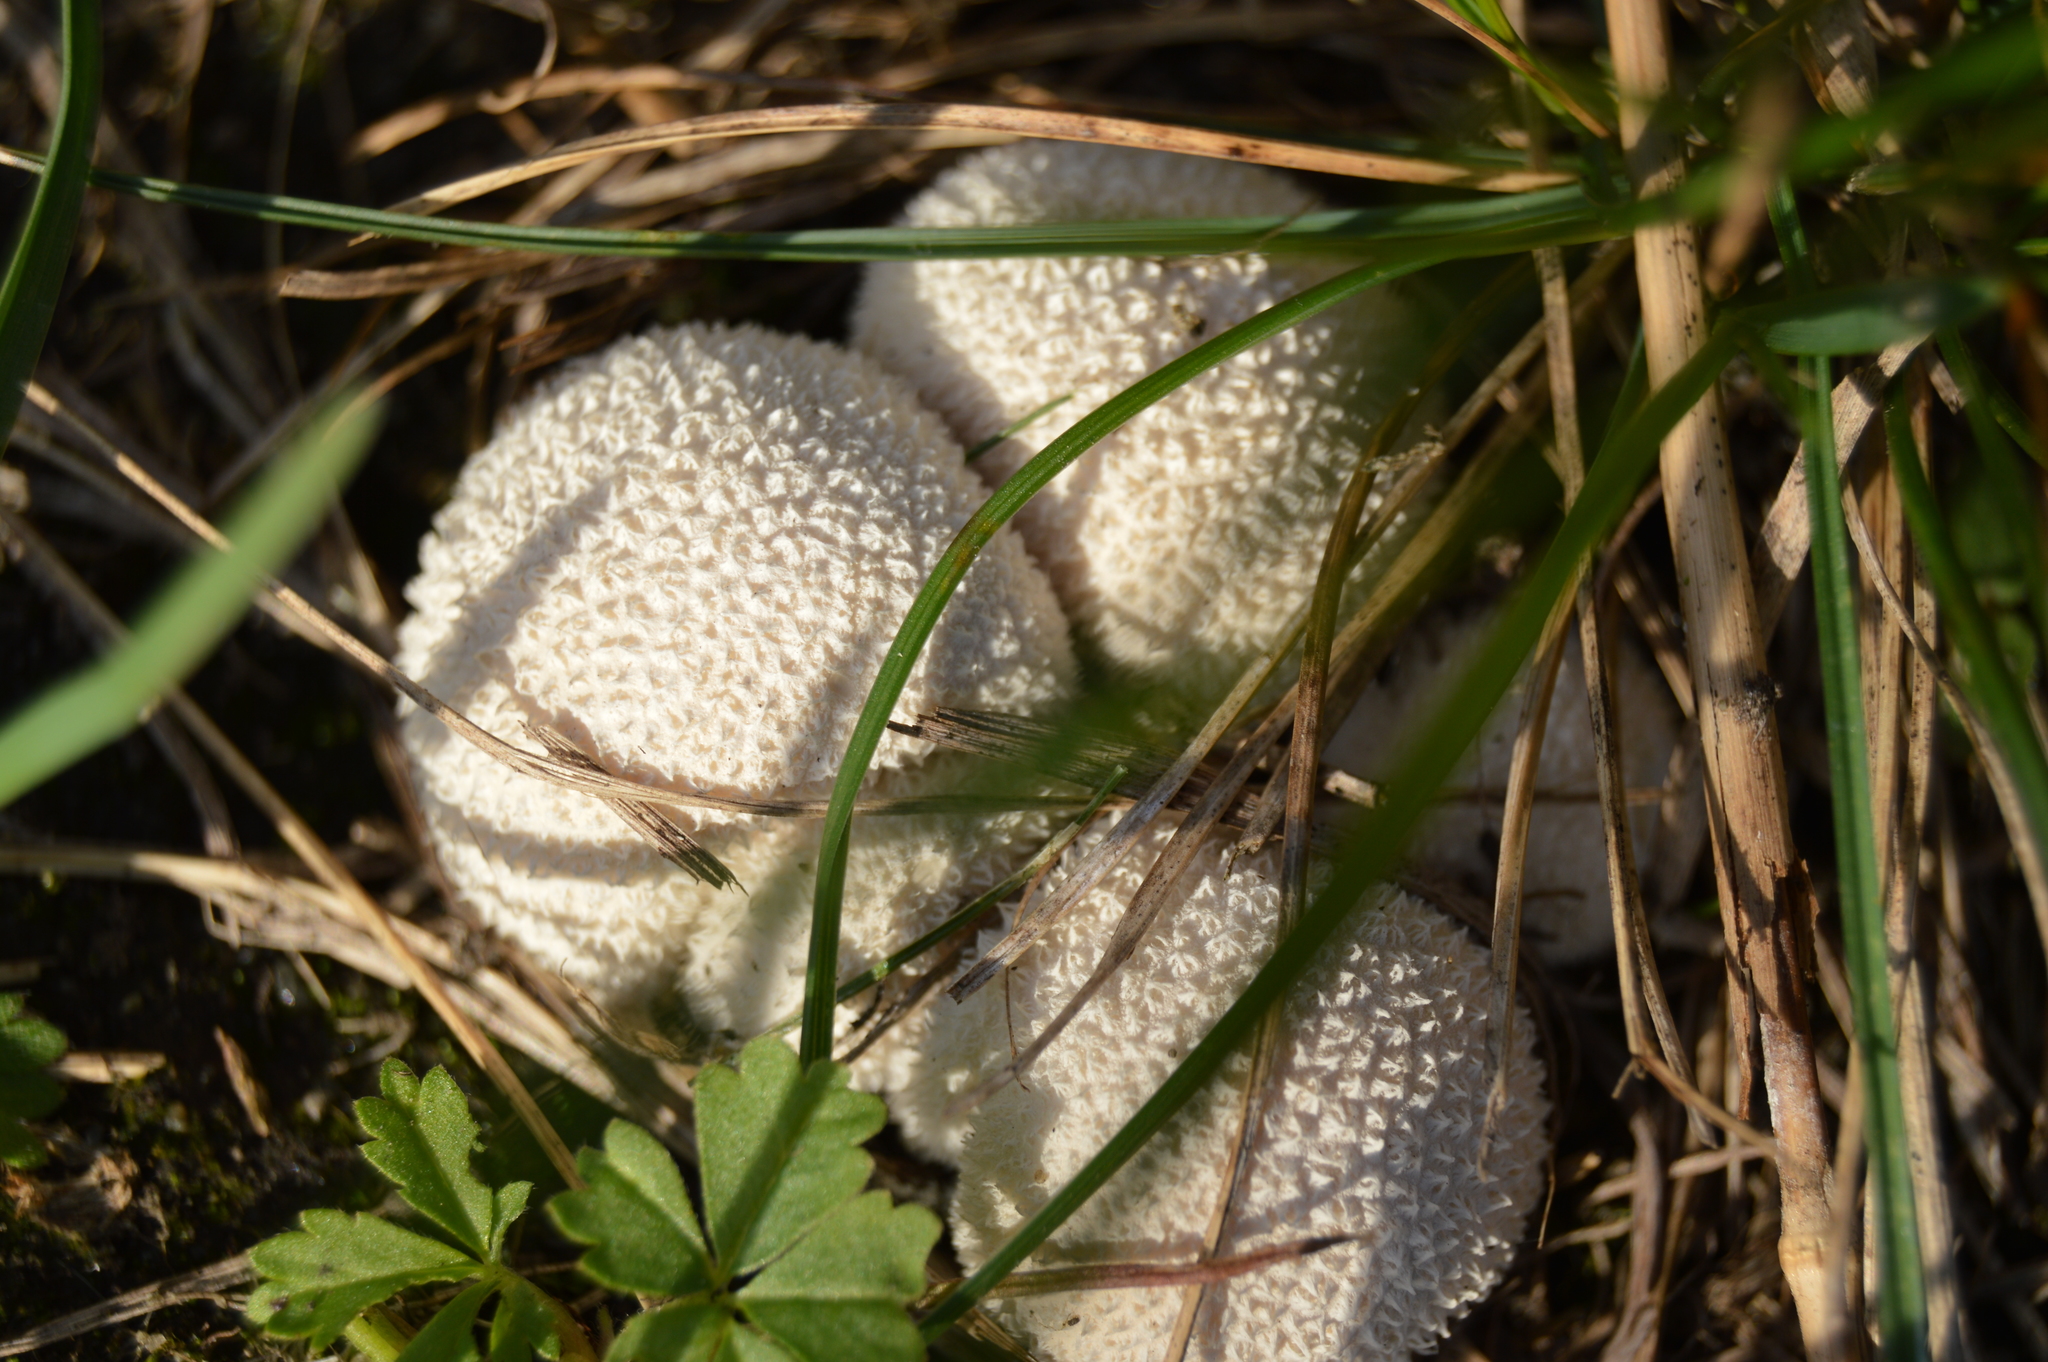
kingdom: Fungi
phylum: Basidiomycota
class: Agaricomycetes
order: Agaricales
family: Lycoperdaceae
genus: Lycoperdon
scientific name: Lycoperdon curtisii
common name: Curtis's puffball
